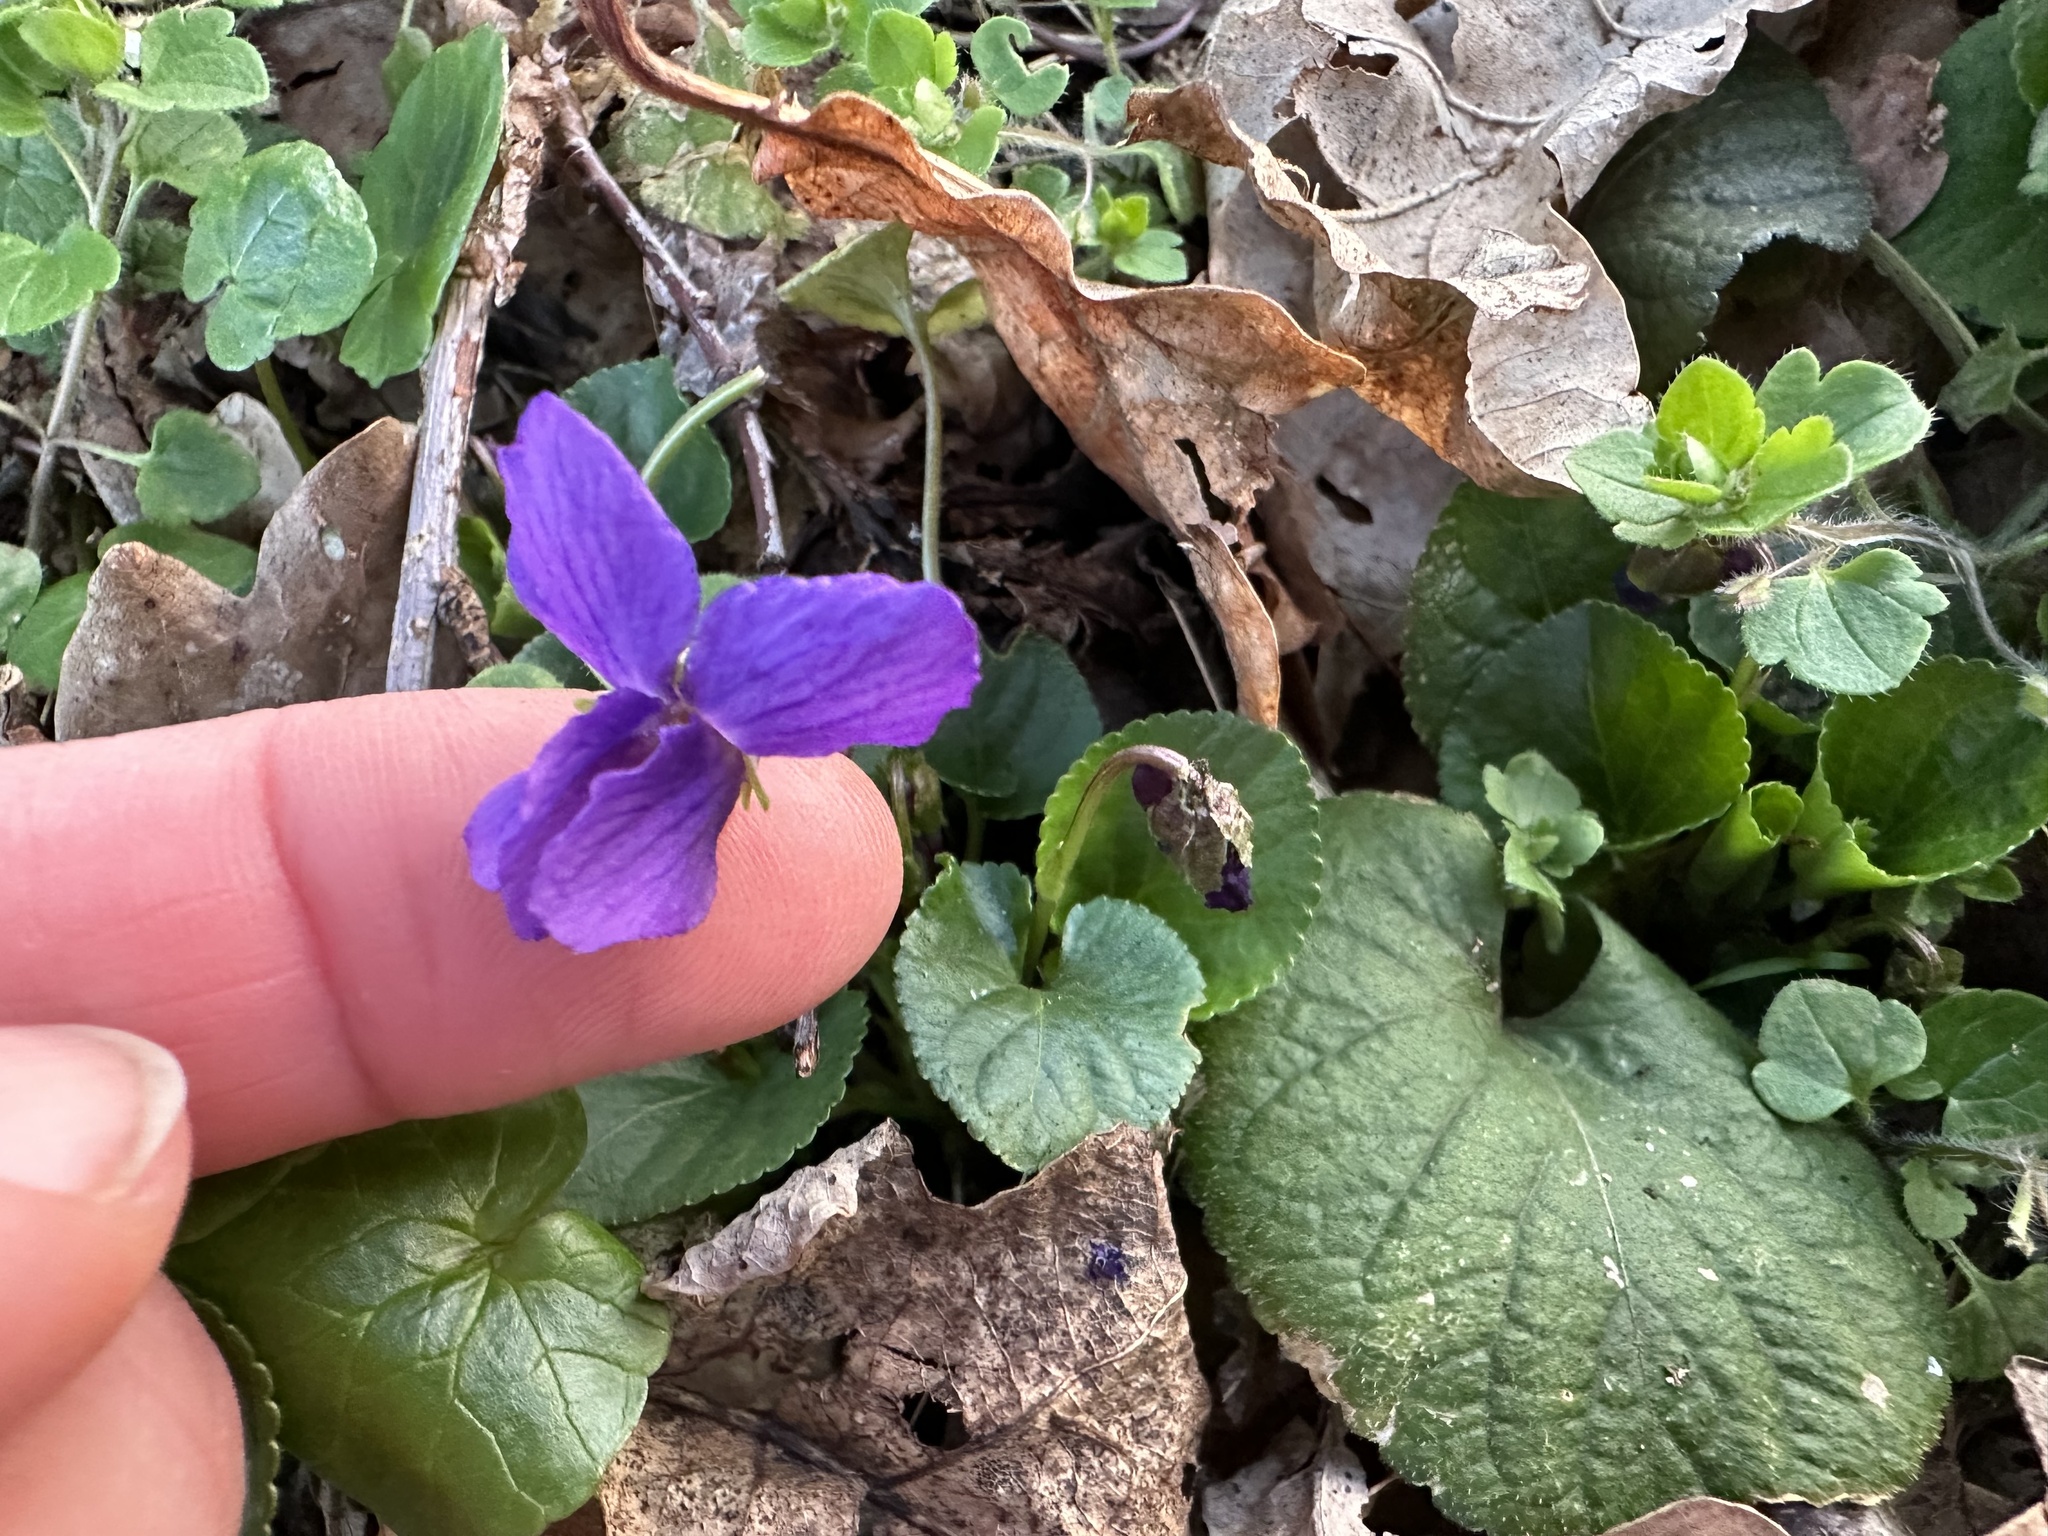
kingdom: Plantae
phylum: Tracheophyta
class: Magnoliopsida
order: Malpighiales
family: Violaceae
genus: Viola
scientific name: Viola odorata
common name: Sweet violet
